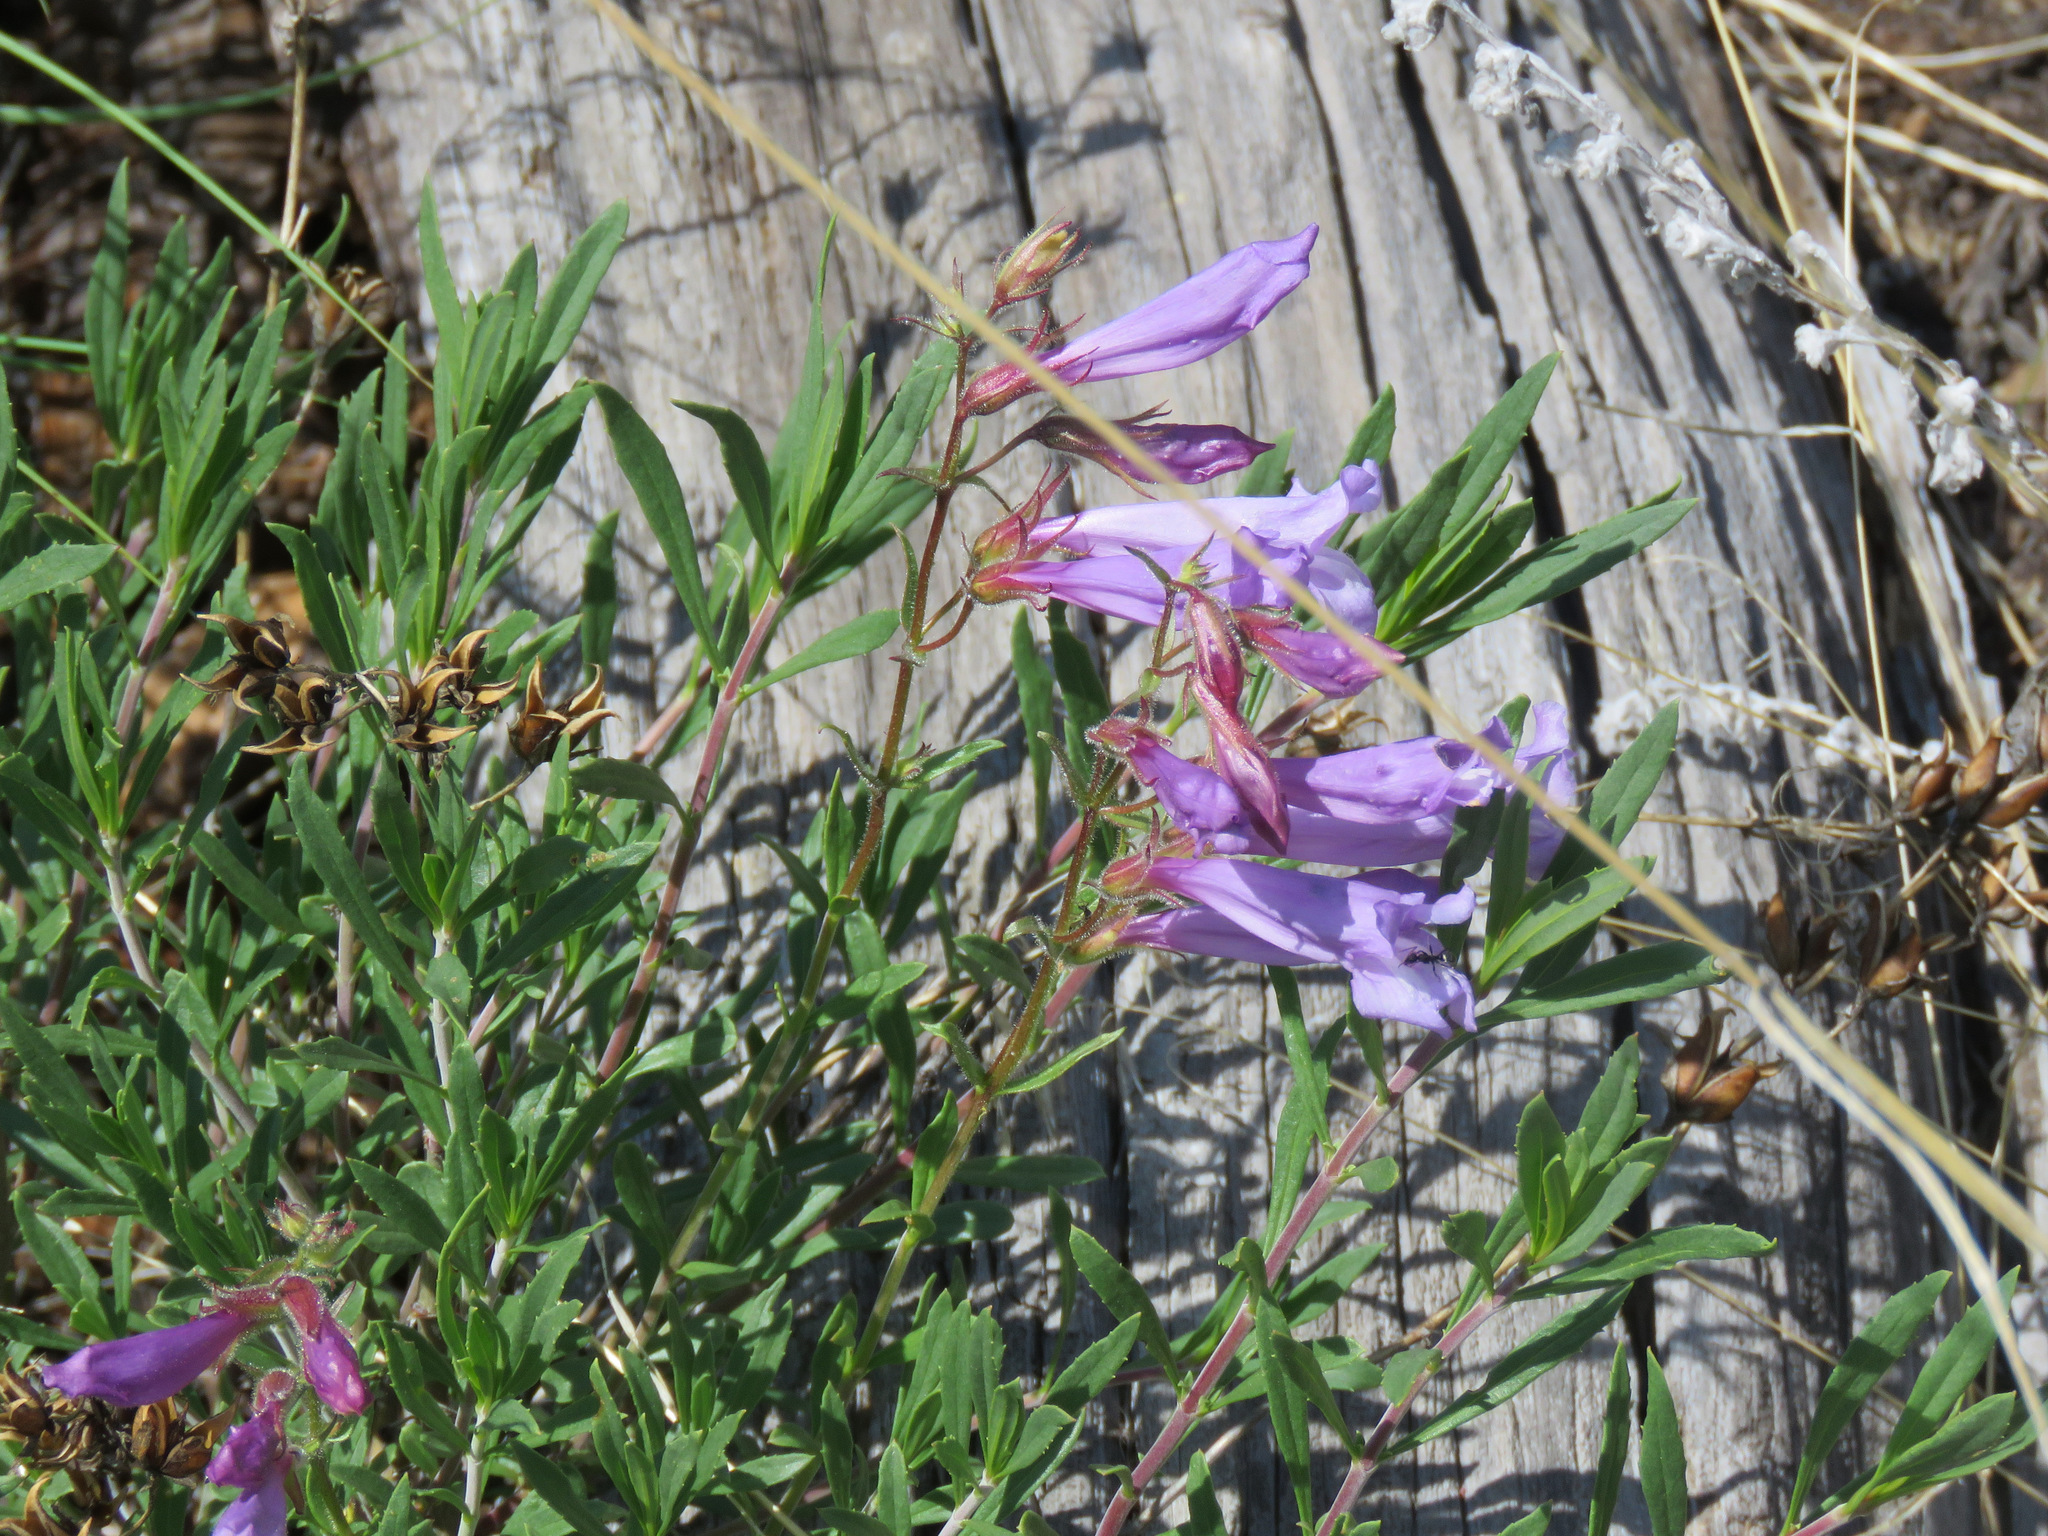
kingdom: Plantae
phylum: Tracheophyta
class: Magnoliopsida
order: Lamiales
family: Plantaginaceae
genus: Penstemon
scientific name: Penstemon fruticosus
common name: Bush penstemon
